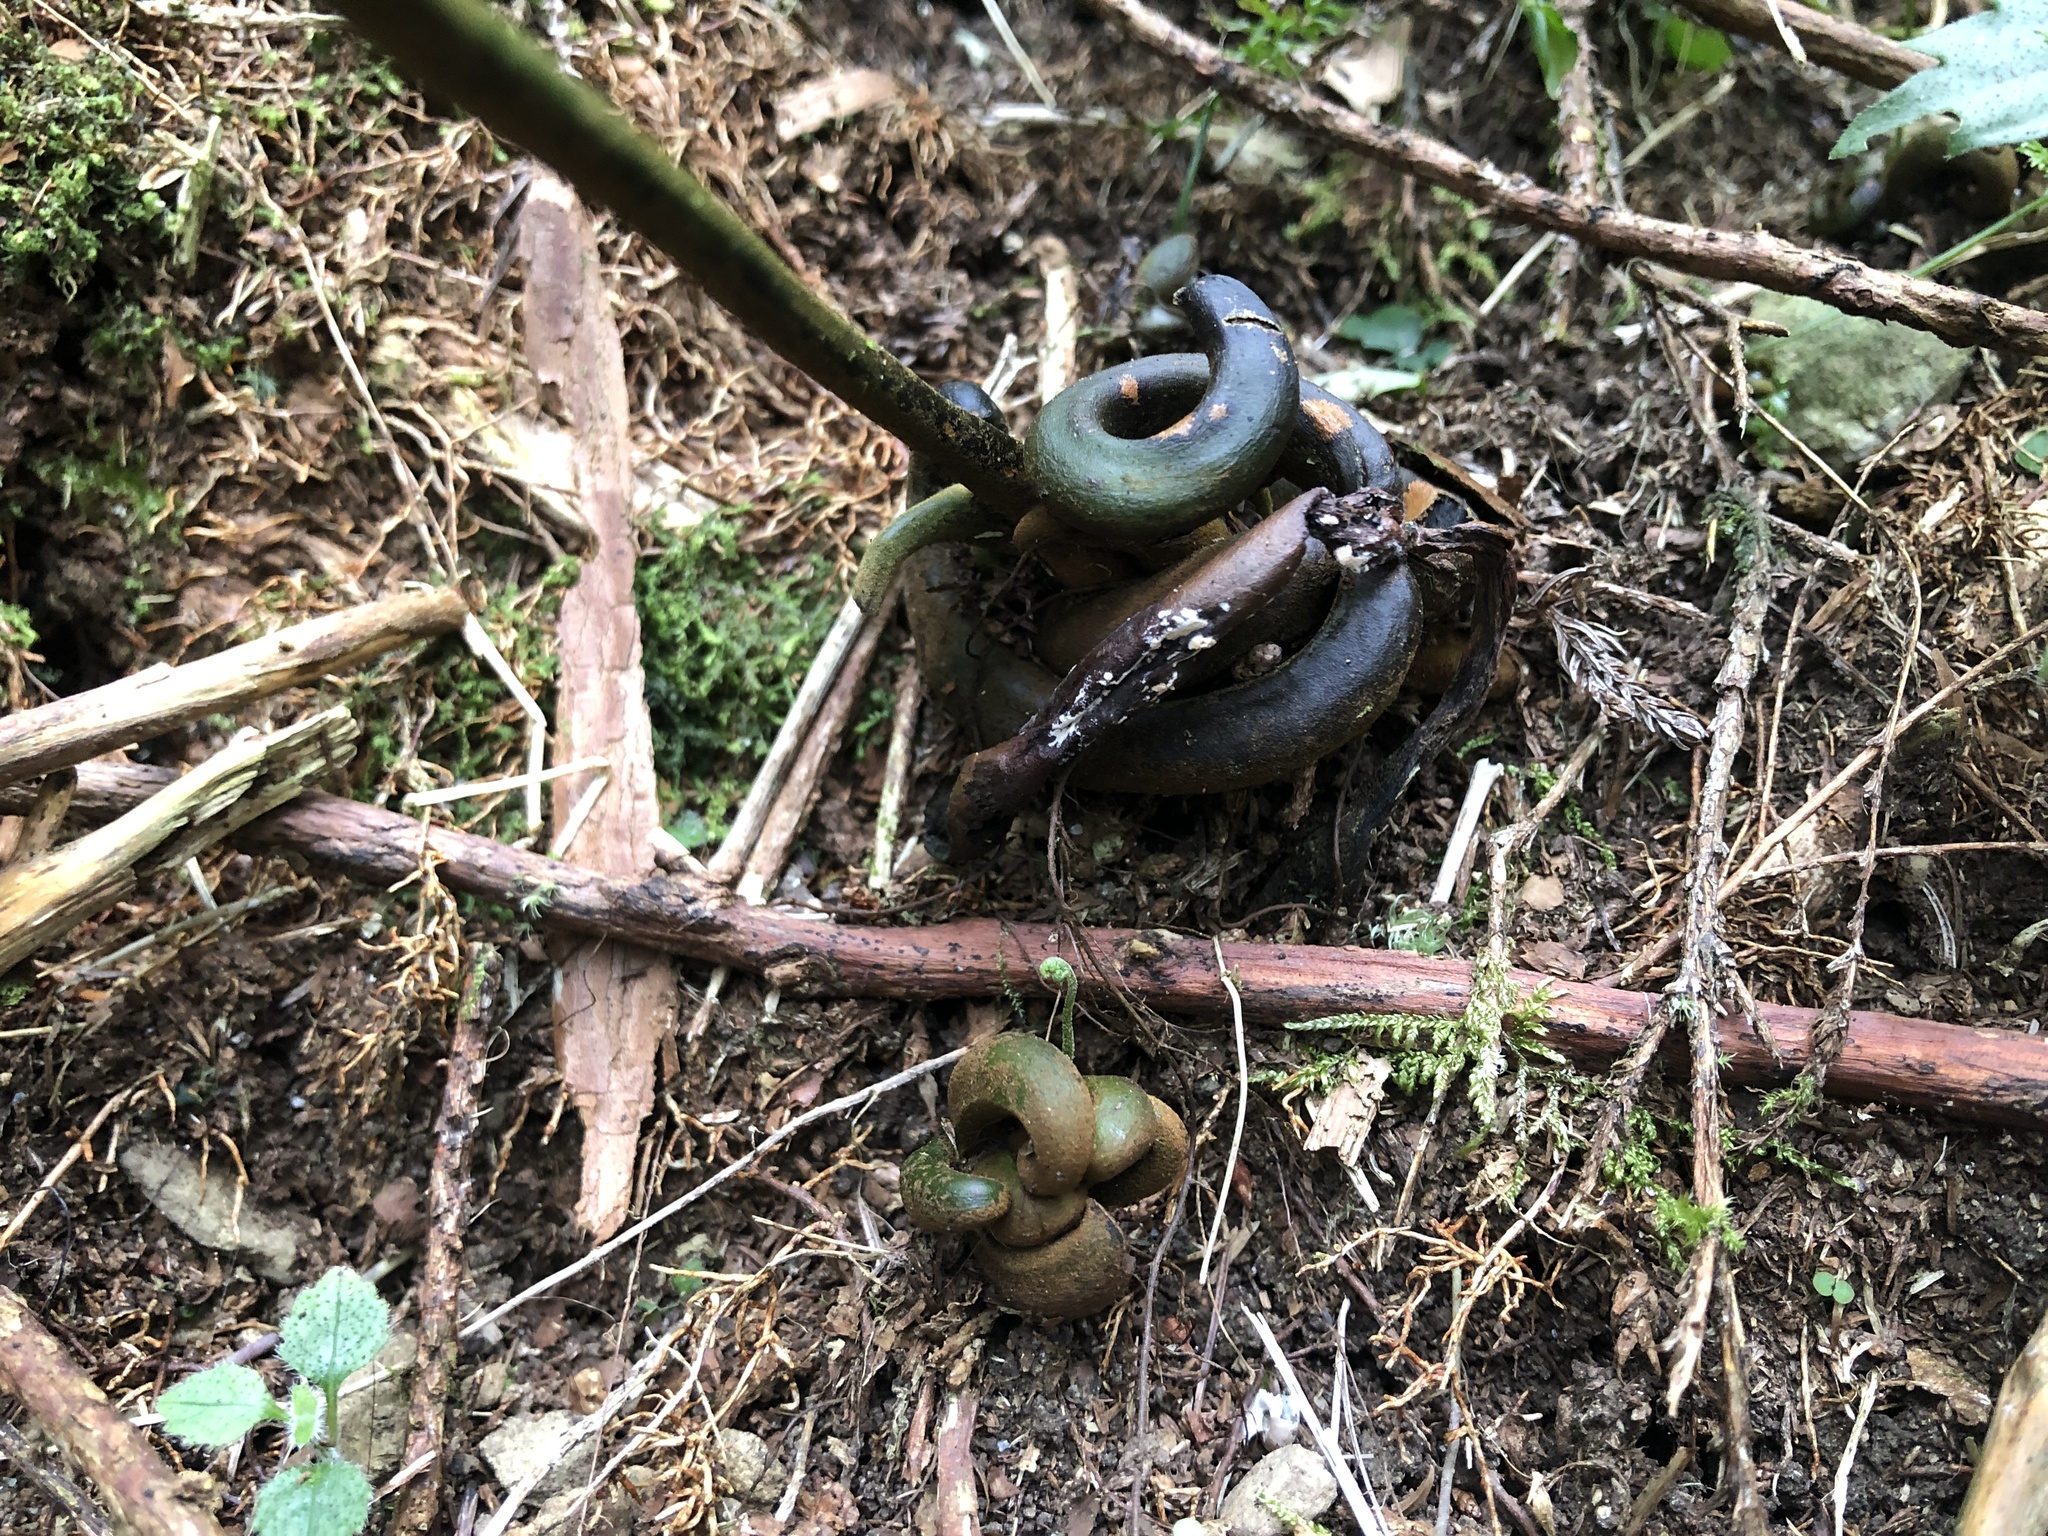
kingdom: Plantae
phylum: Tracheophyta
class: Polypodiopsida
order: Polypodiales
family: Dennstaedtiaceae
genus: Monachosorum
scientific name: Monachosorum henryi
